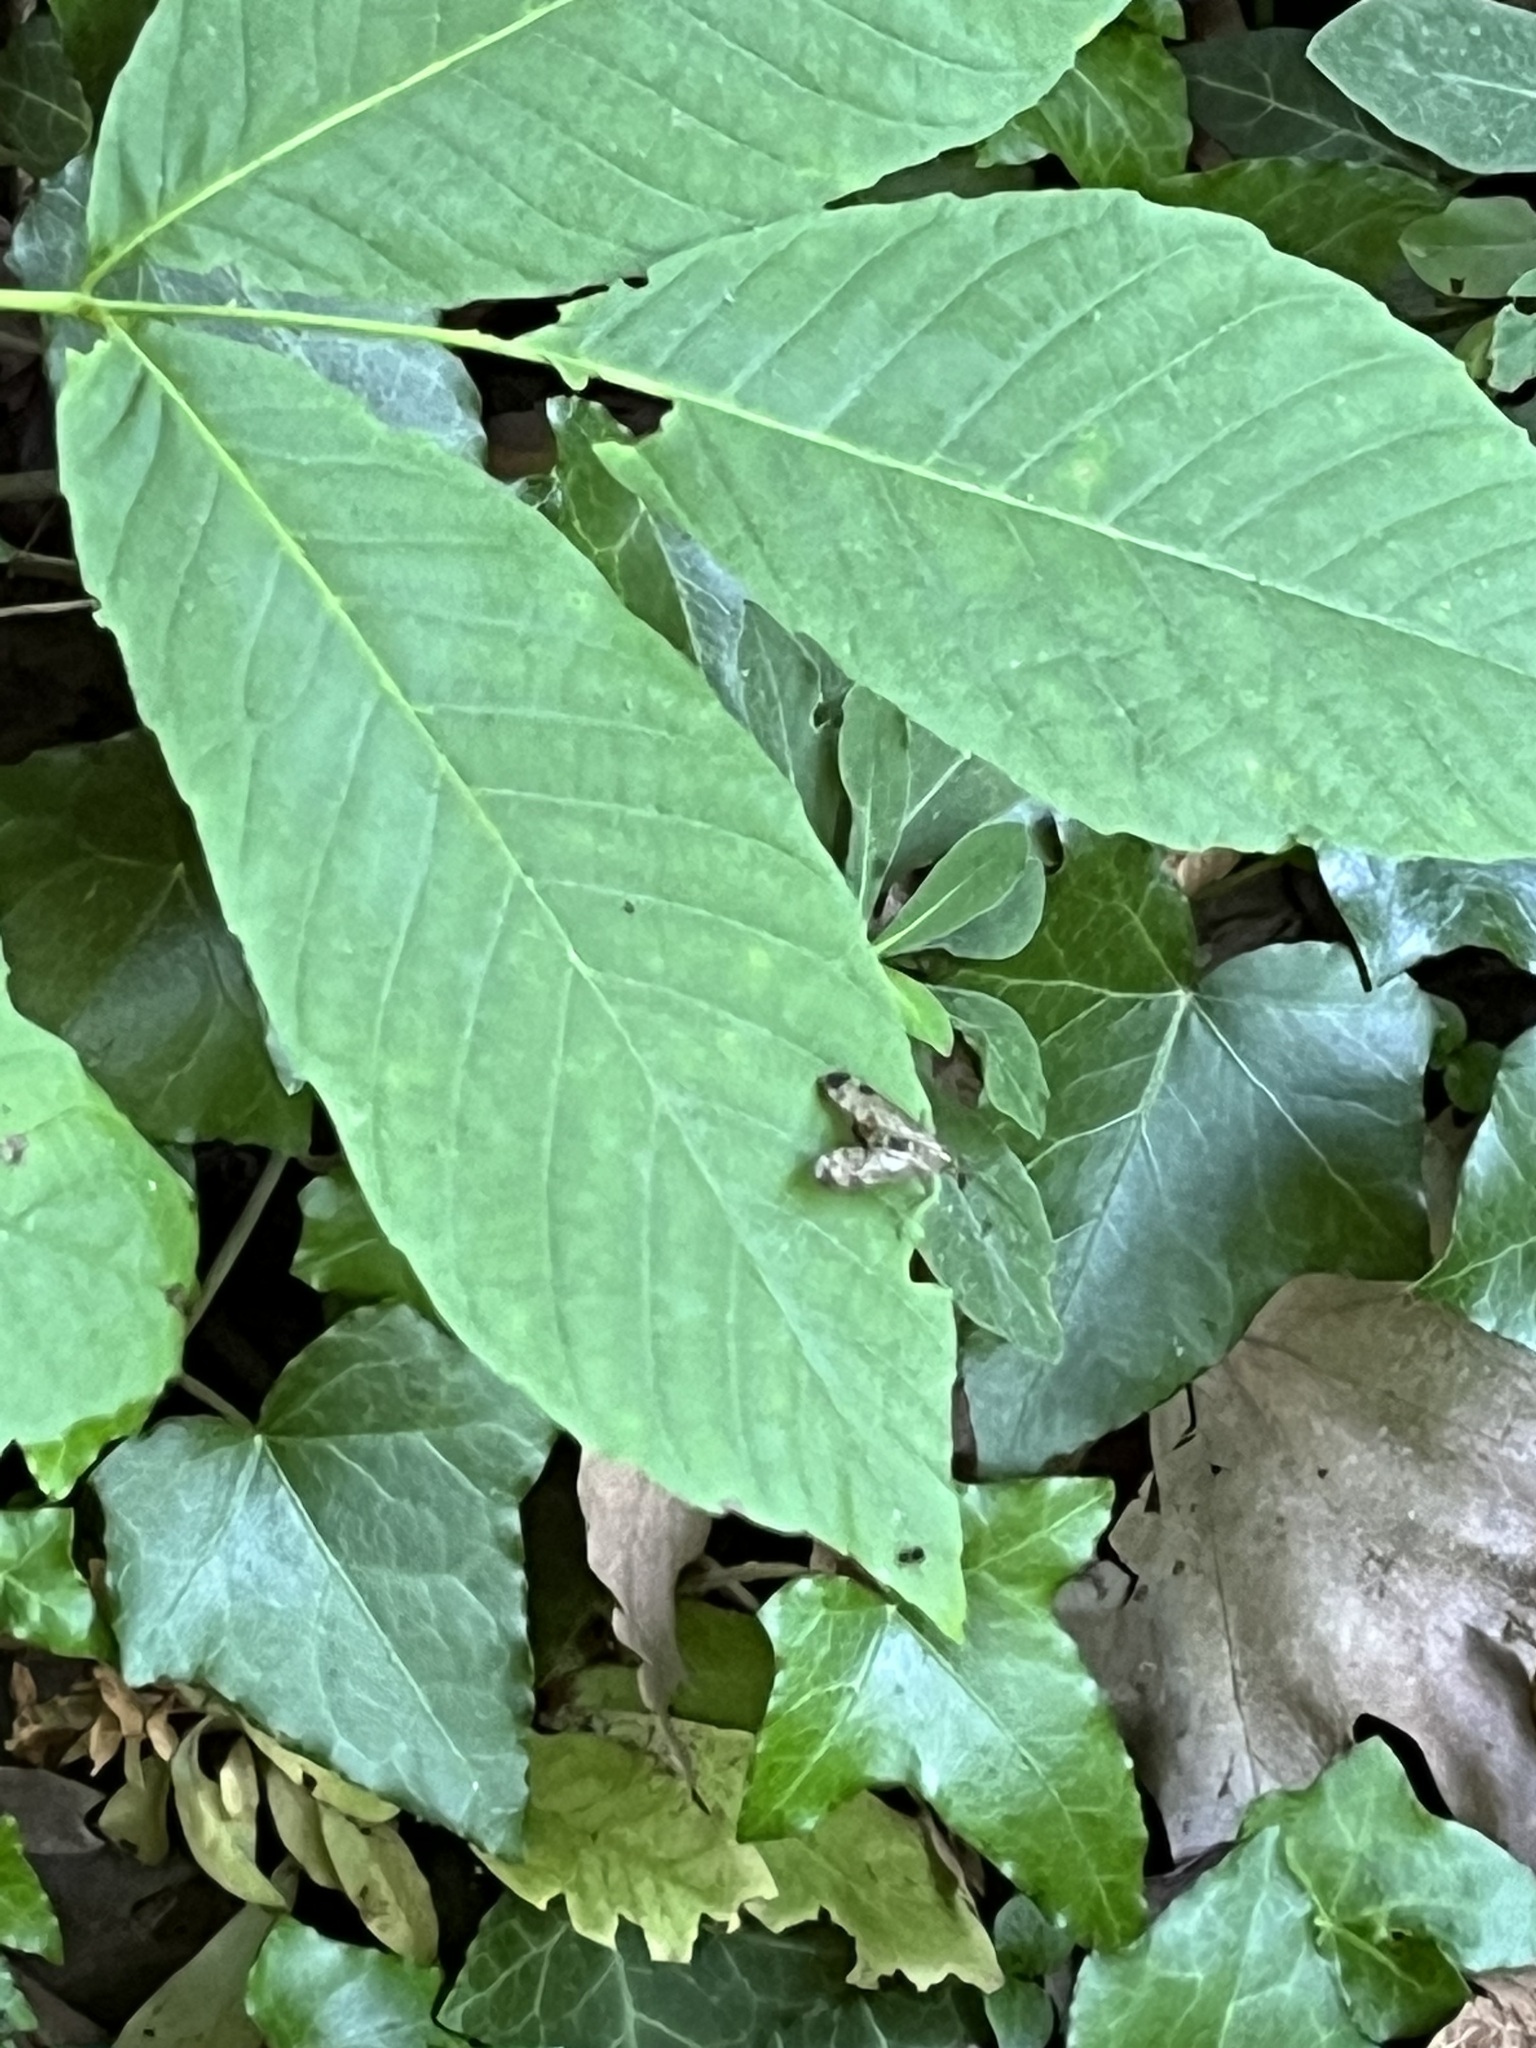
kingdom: Animalia
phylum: Arthropoda
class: Insecta
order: Mecoptera
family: Panorpidae
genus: Panorpa
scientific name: Panorpa
